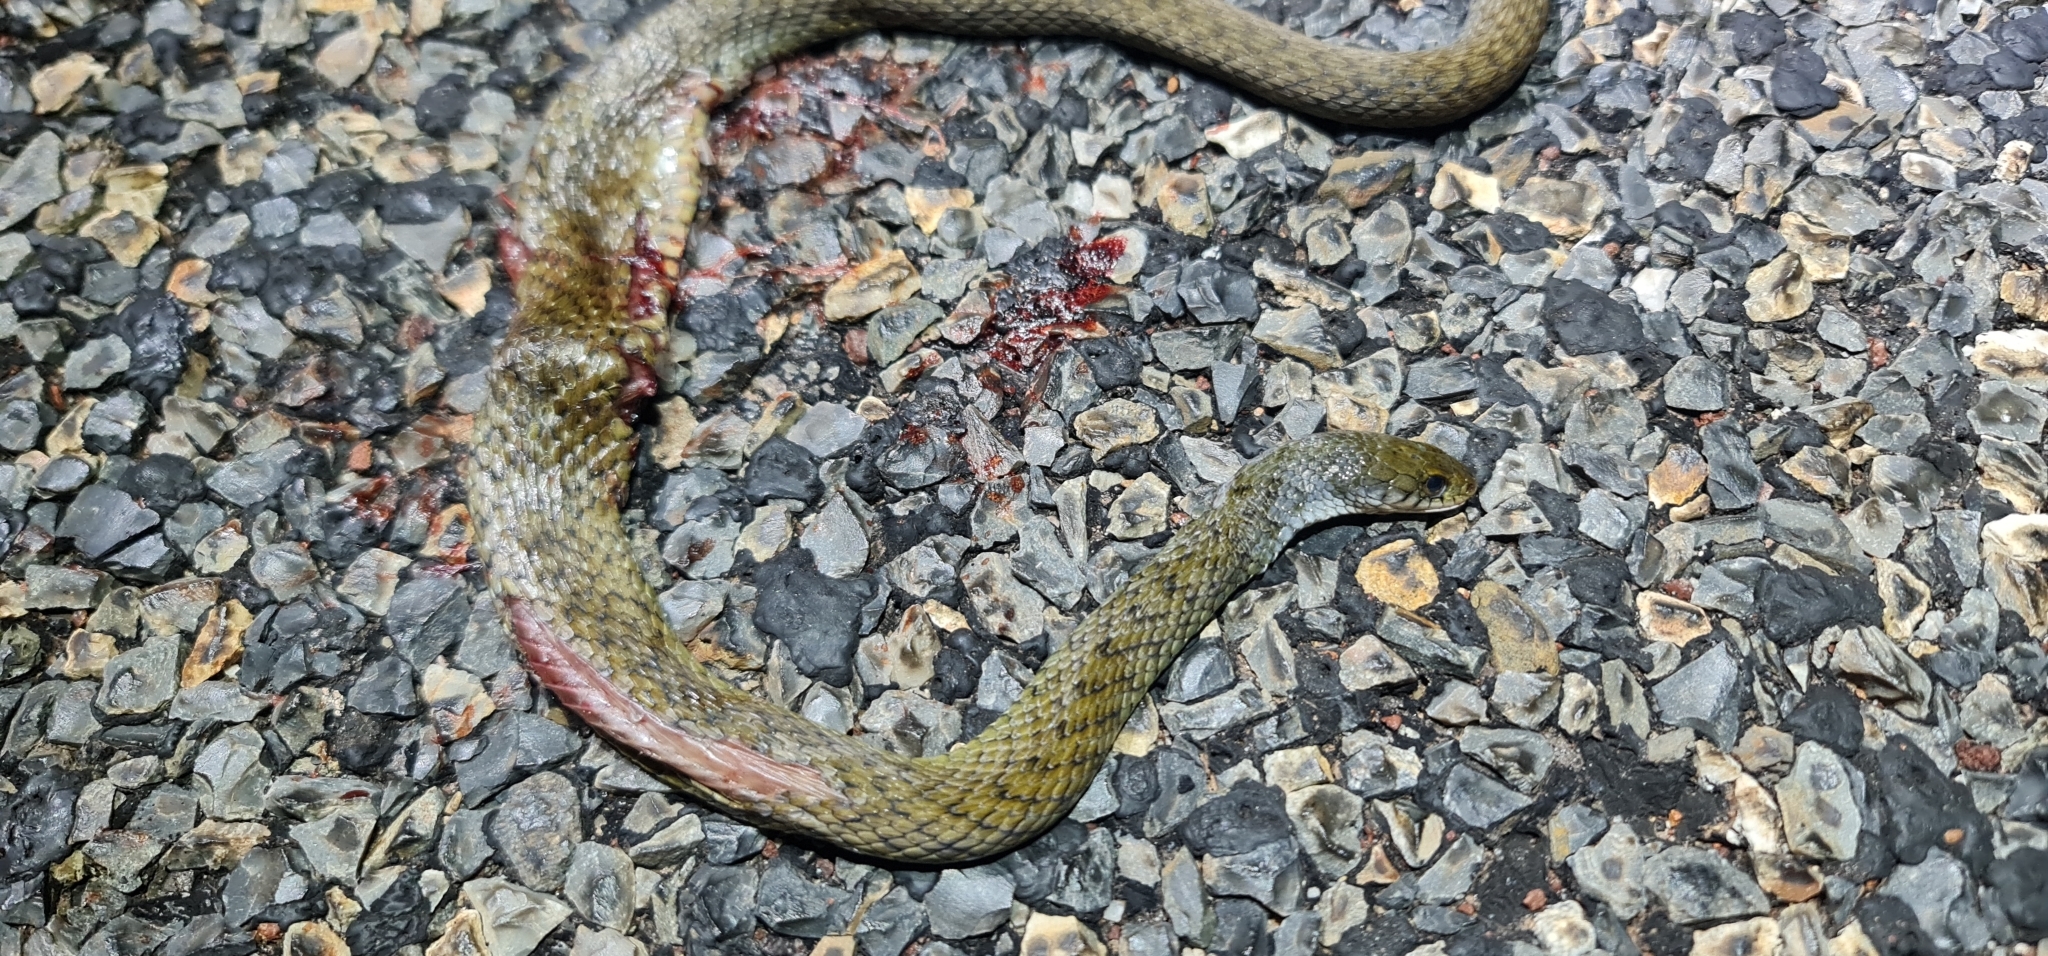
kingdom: Animalia
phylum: Chordata
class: Squamata
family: Colubridae
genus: Tropidonophis
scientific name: Tropidonophis mairii
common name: Common keelback
